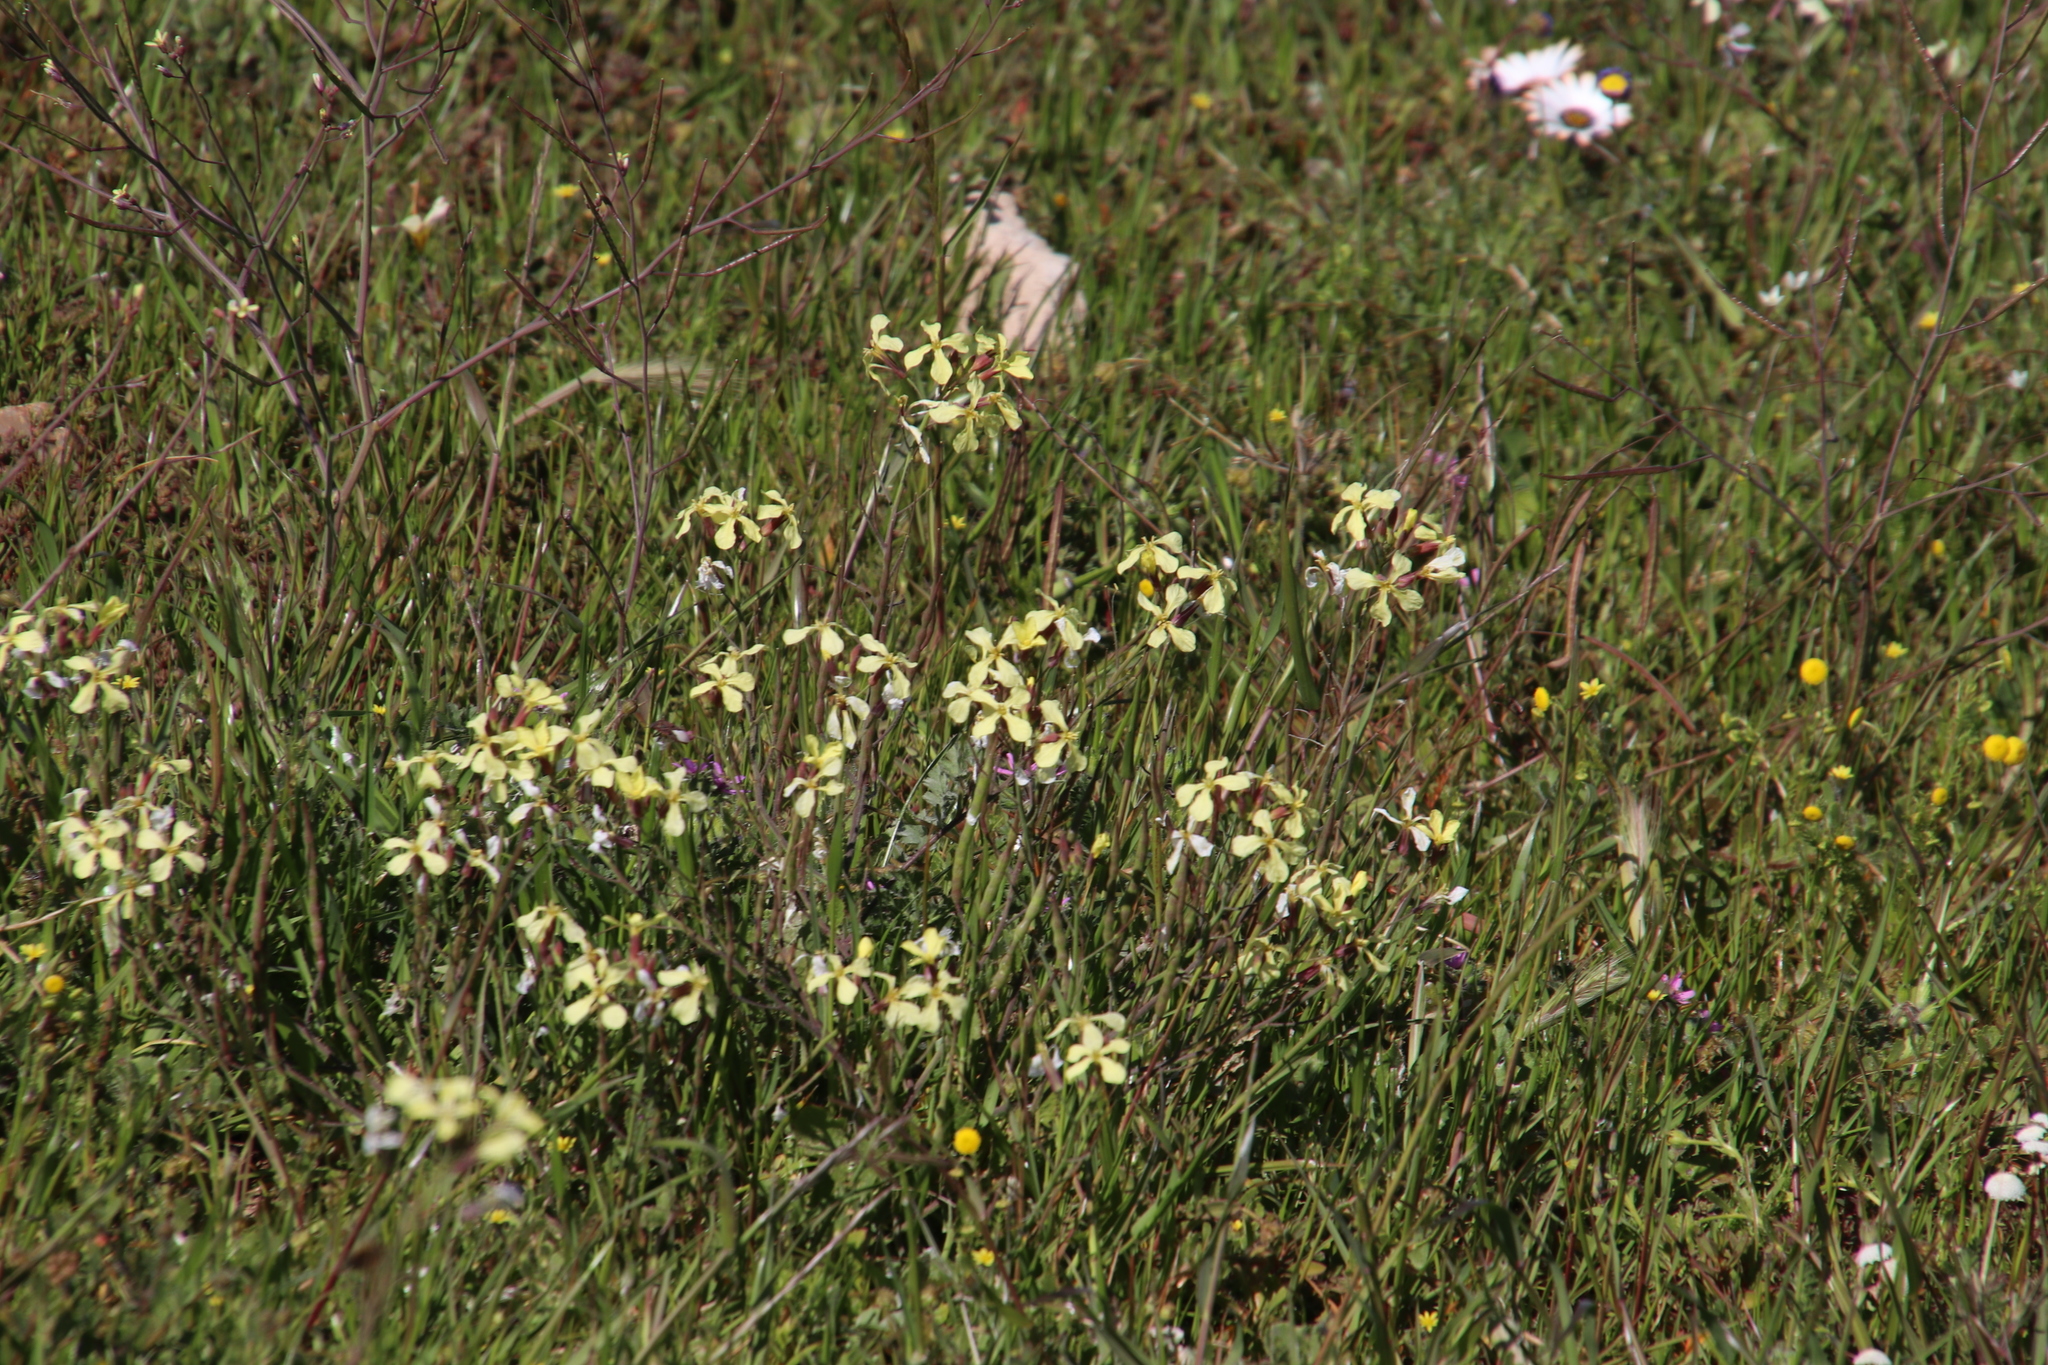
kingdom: Plantae
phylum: Tracheophyta
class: Magnoliopsida
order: Brassicales
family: Brassicaceae
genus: Raphanus
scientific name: Raphanus raphanistrum
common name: Wild radish
